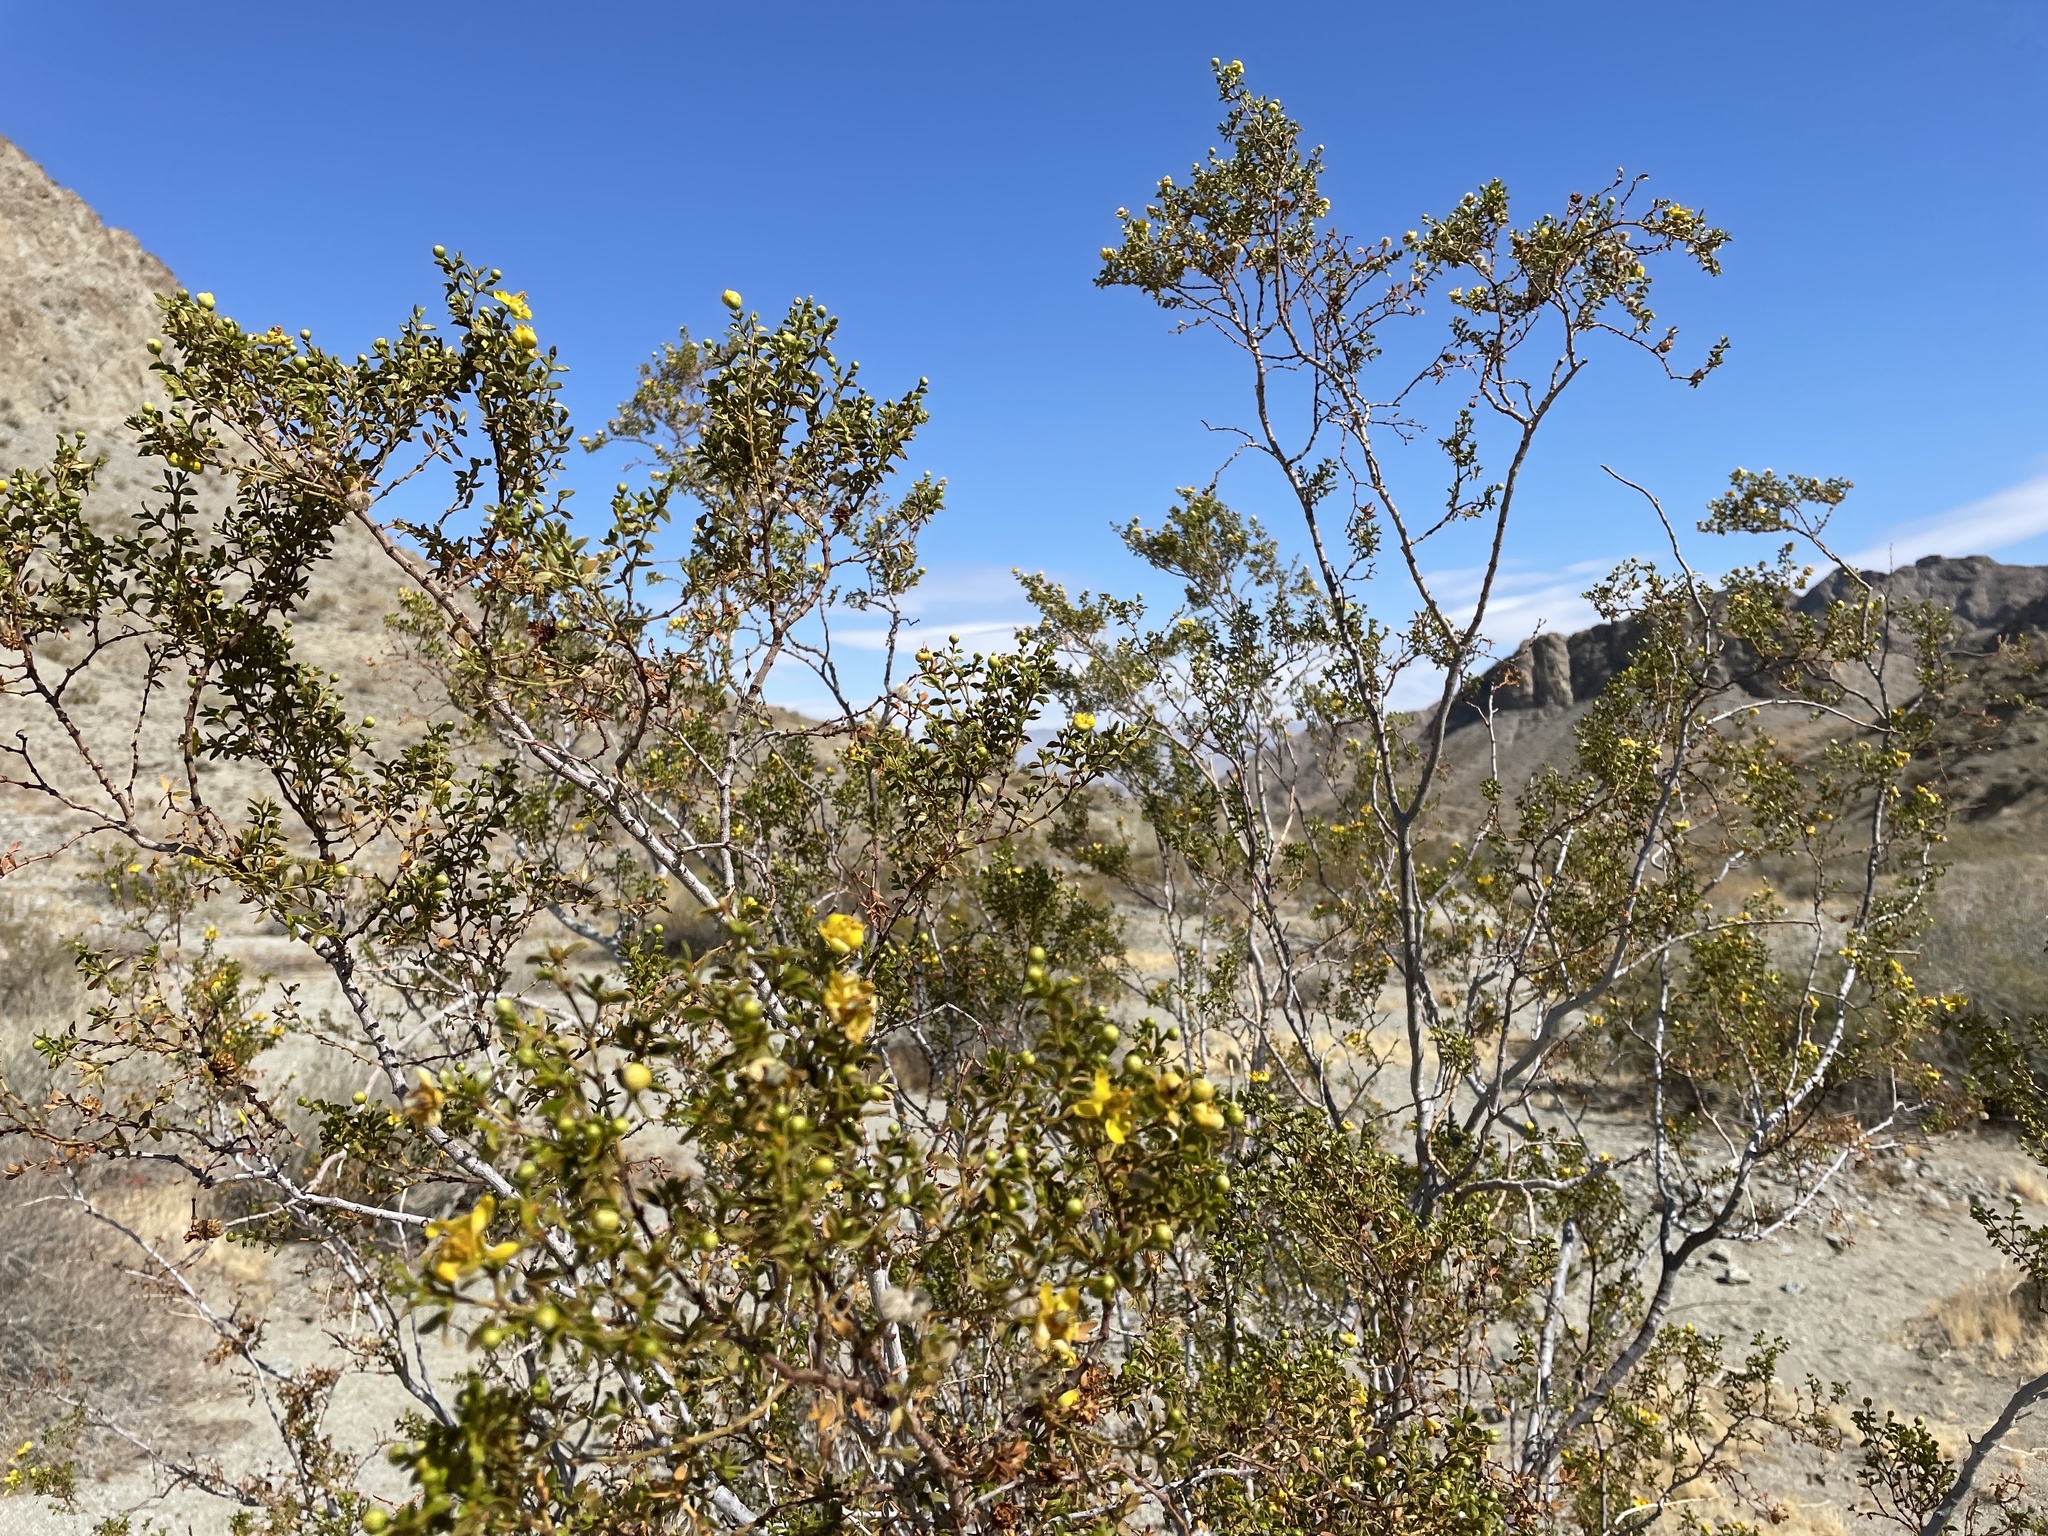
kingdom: Plantae
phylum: Tracheophyta
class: Magnoliopsida
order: Zygophyllales
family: Zygophyllaceae
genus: Larrea
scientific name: Larrea tridentata
